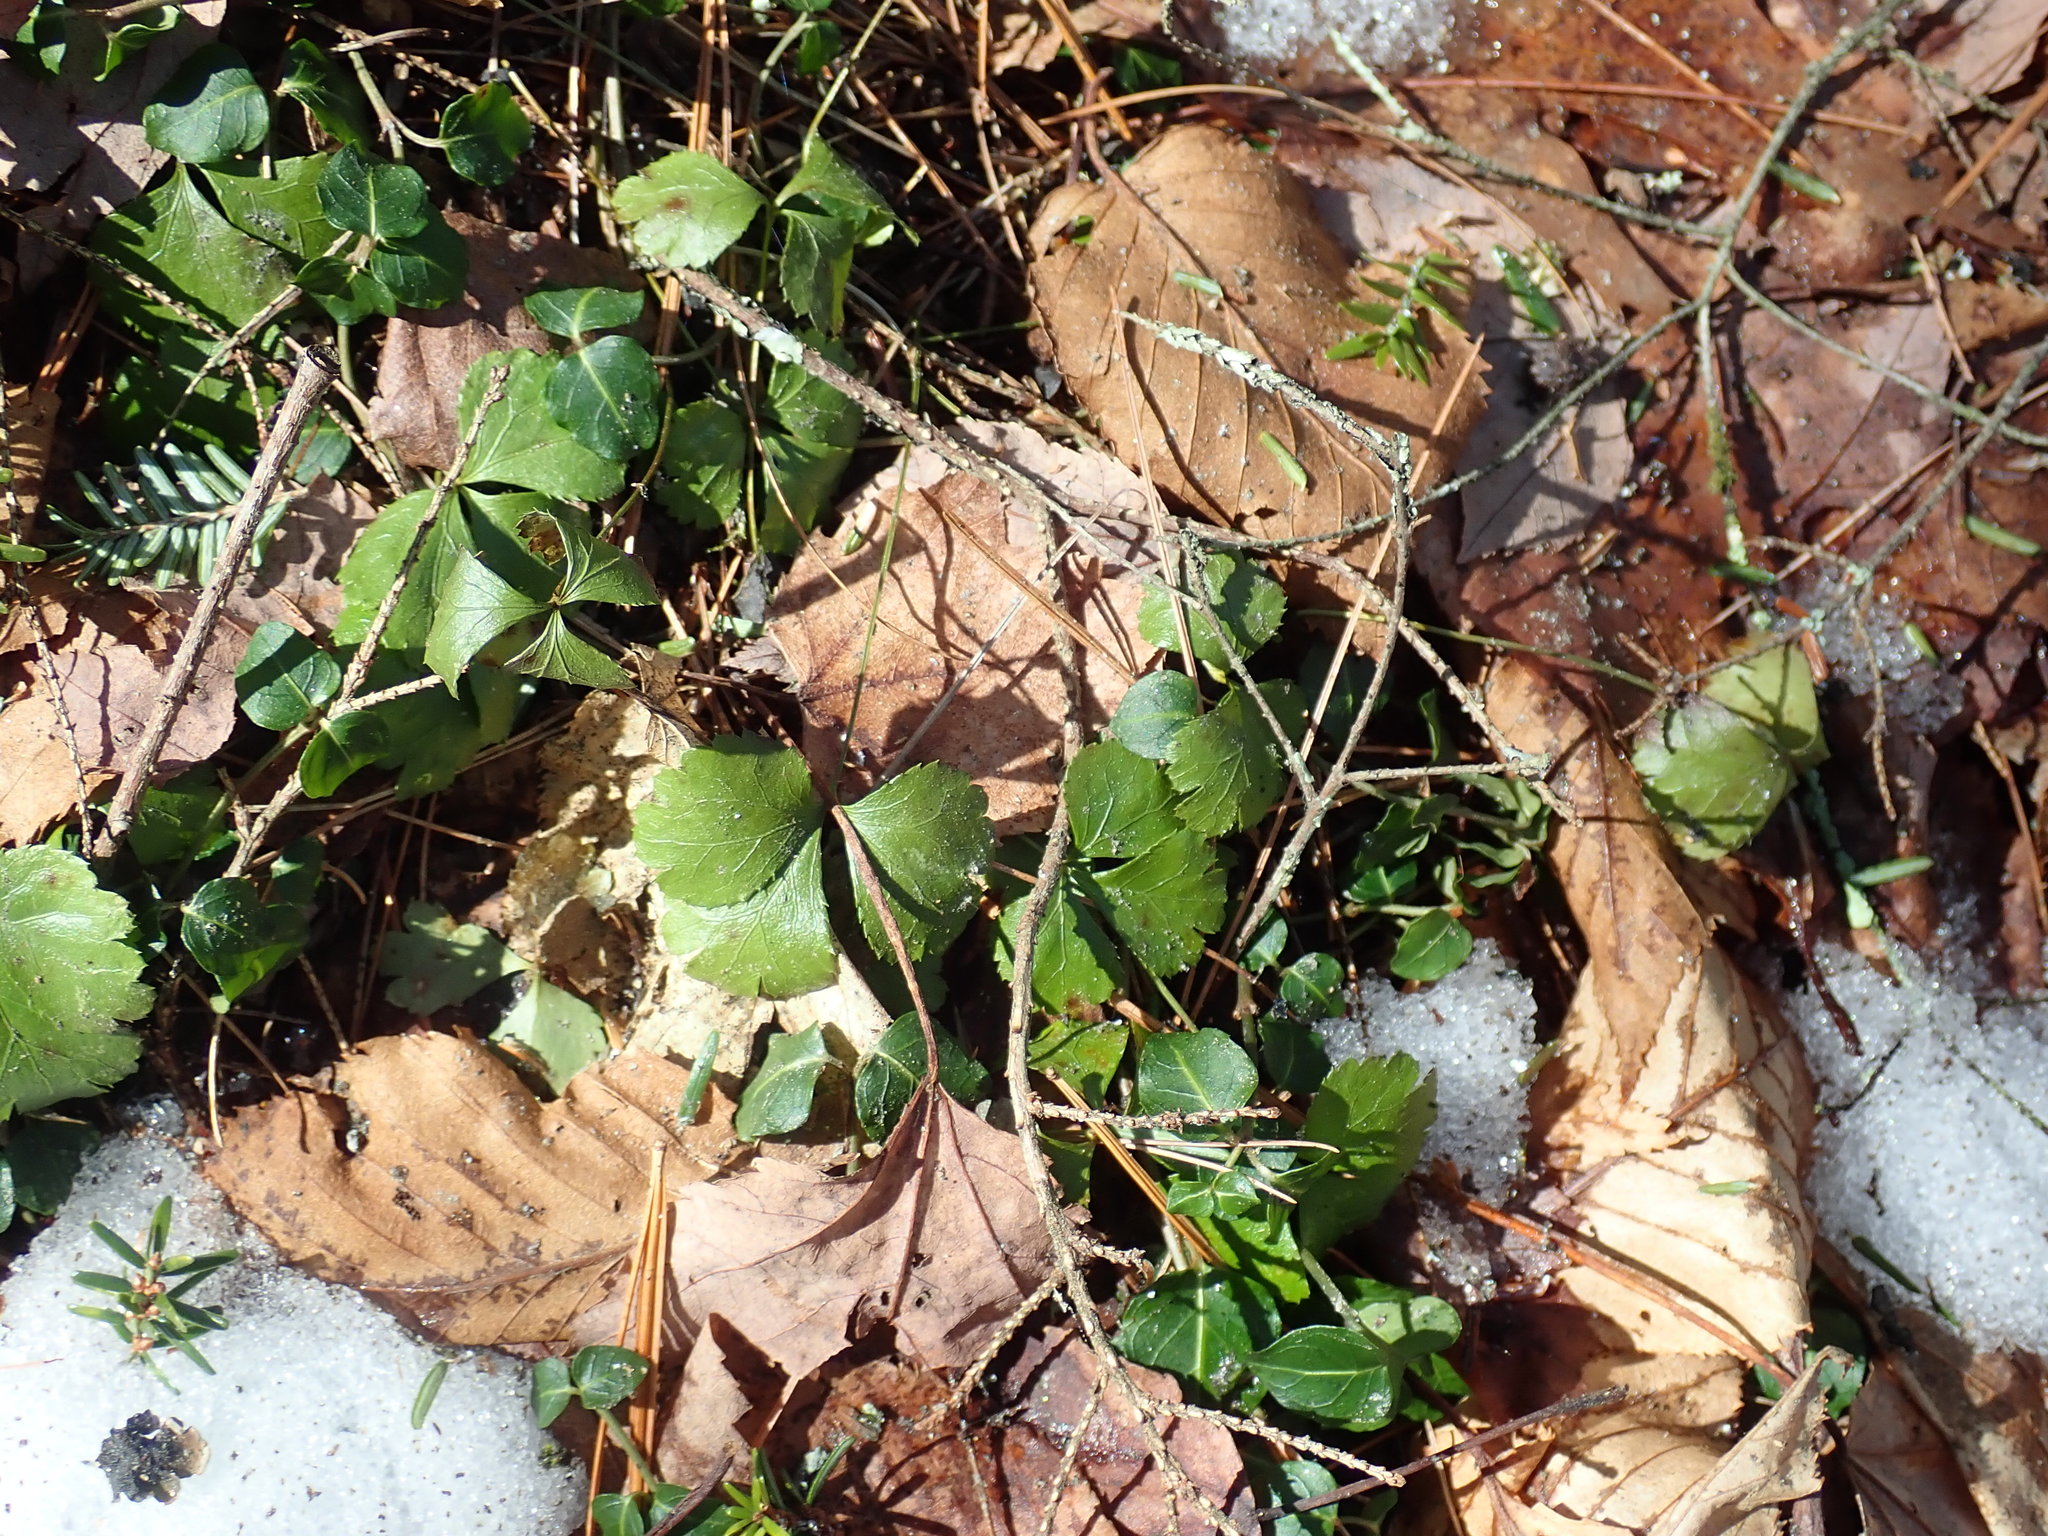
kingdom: Plantae
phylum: Tracheophyta
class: Magnoliopsida
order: Ranunculales
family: Ranunculaceae
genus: Coptis
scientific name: Coptis trifolia
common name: Canker-root
